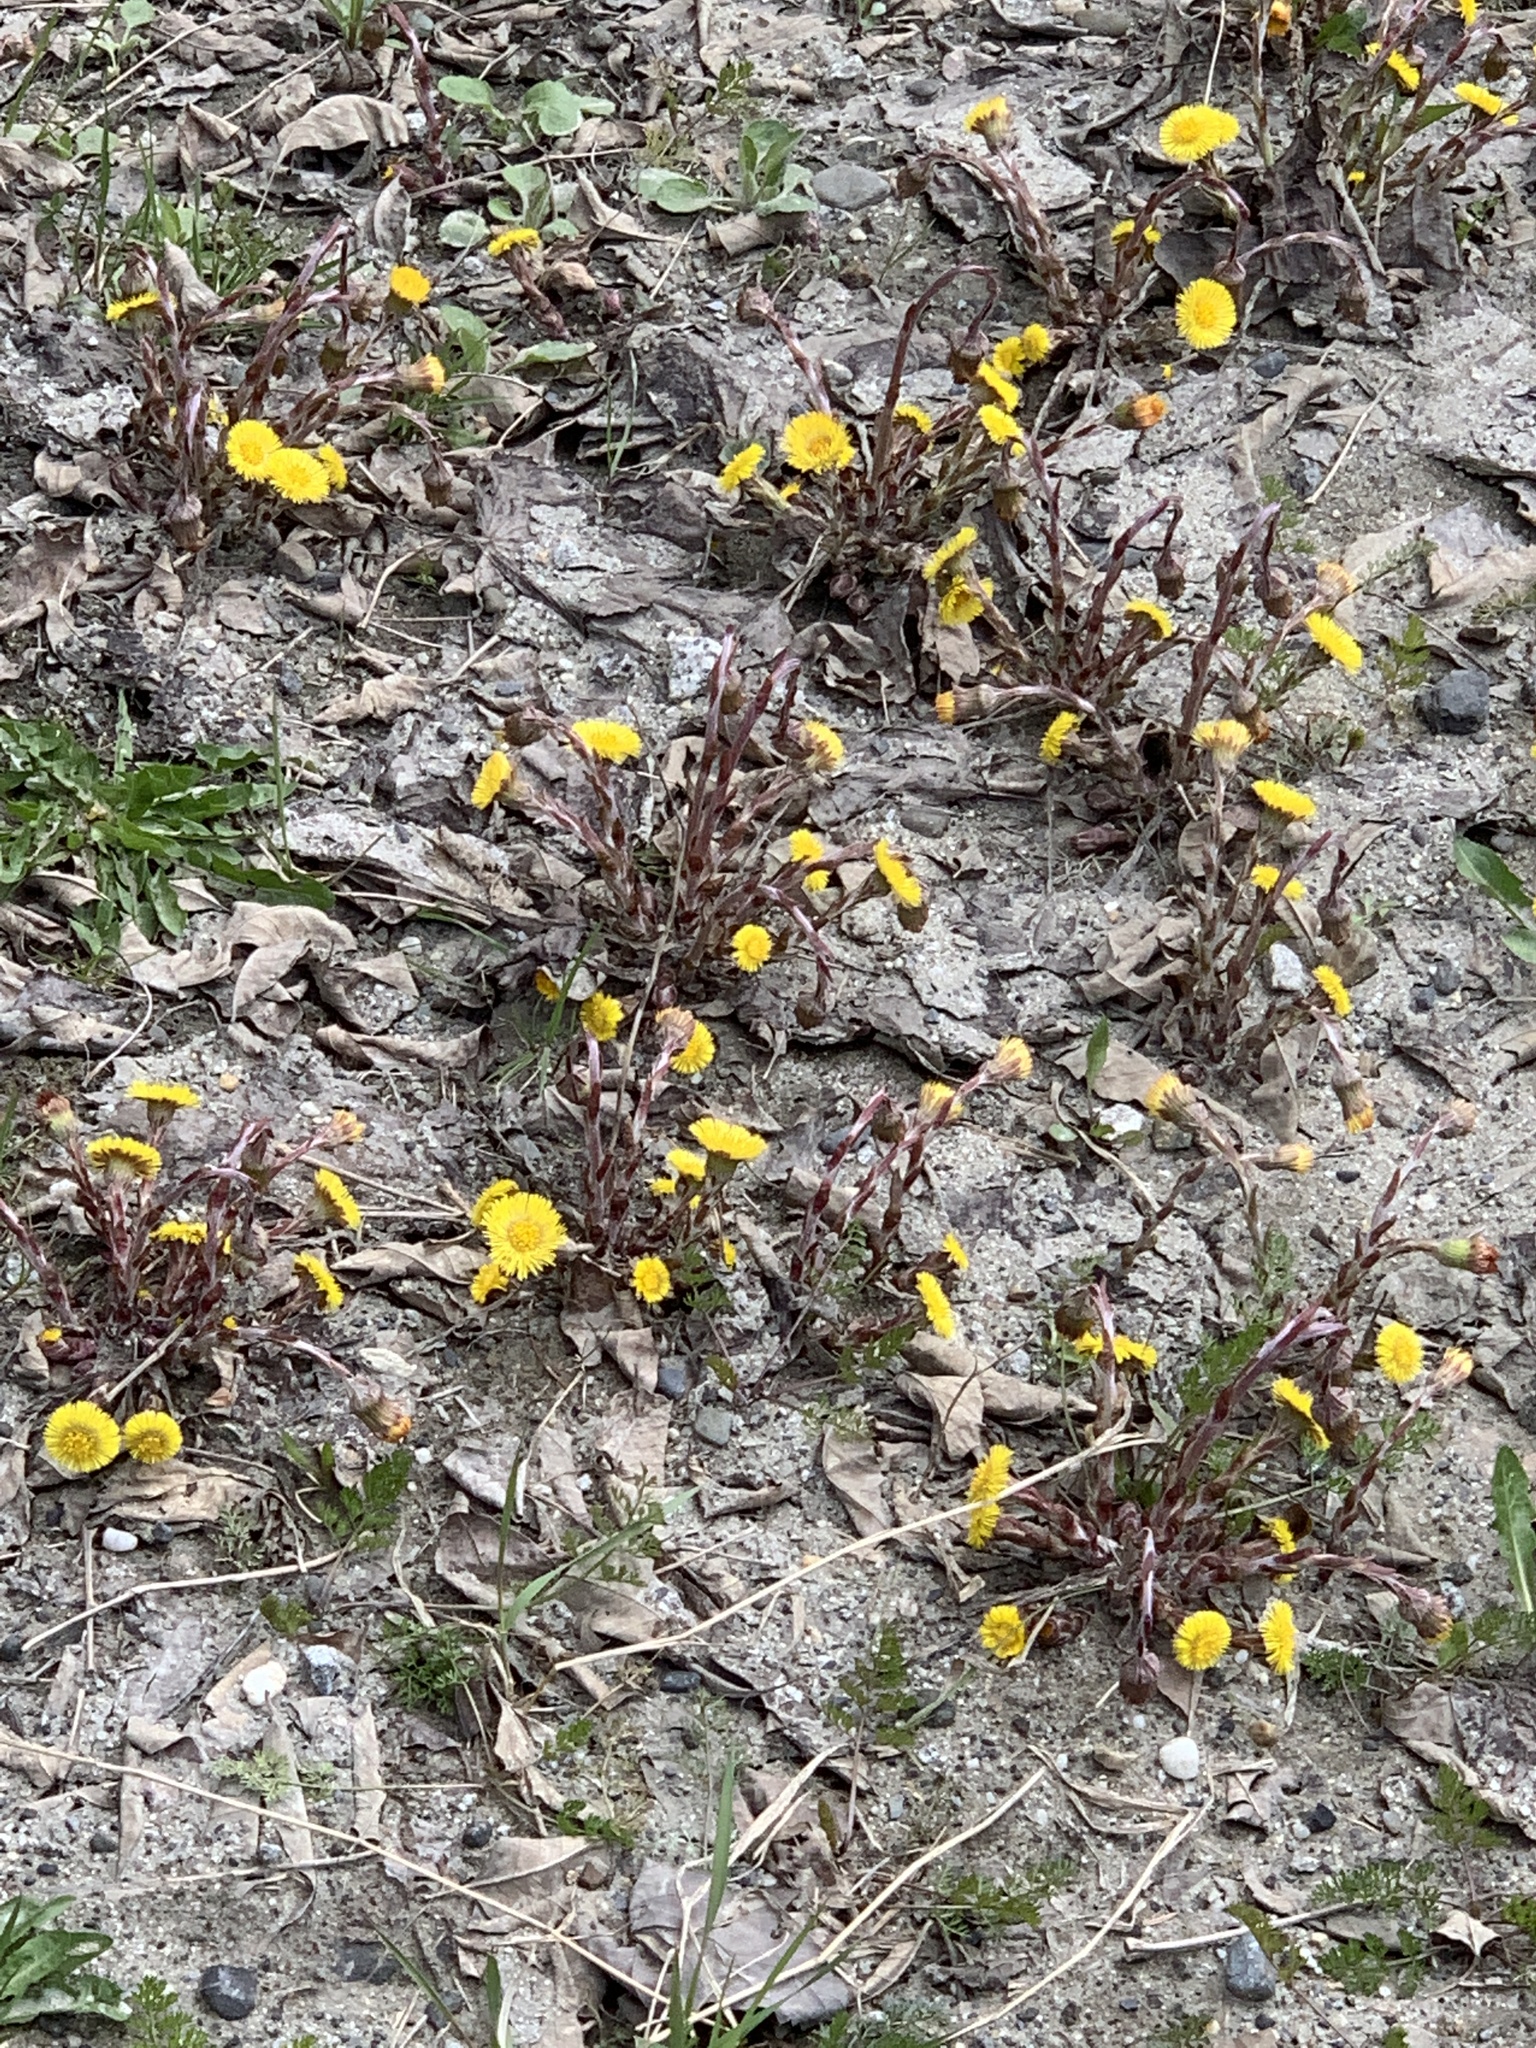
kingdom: Plantae
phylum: Tracheophyta
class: Magnoliopsida
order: Asterales
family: Asteraceae
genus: Tussilago
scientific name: Tussilago farfara
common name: Coltsfoot
